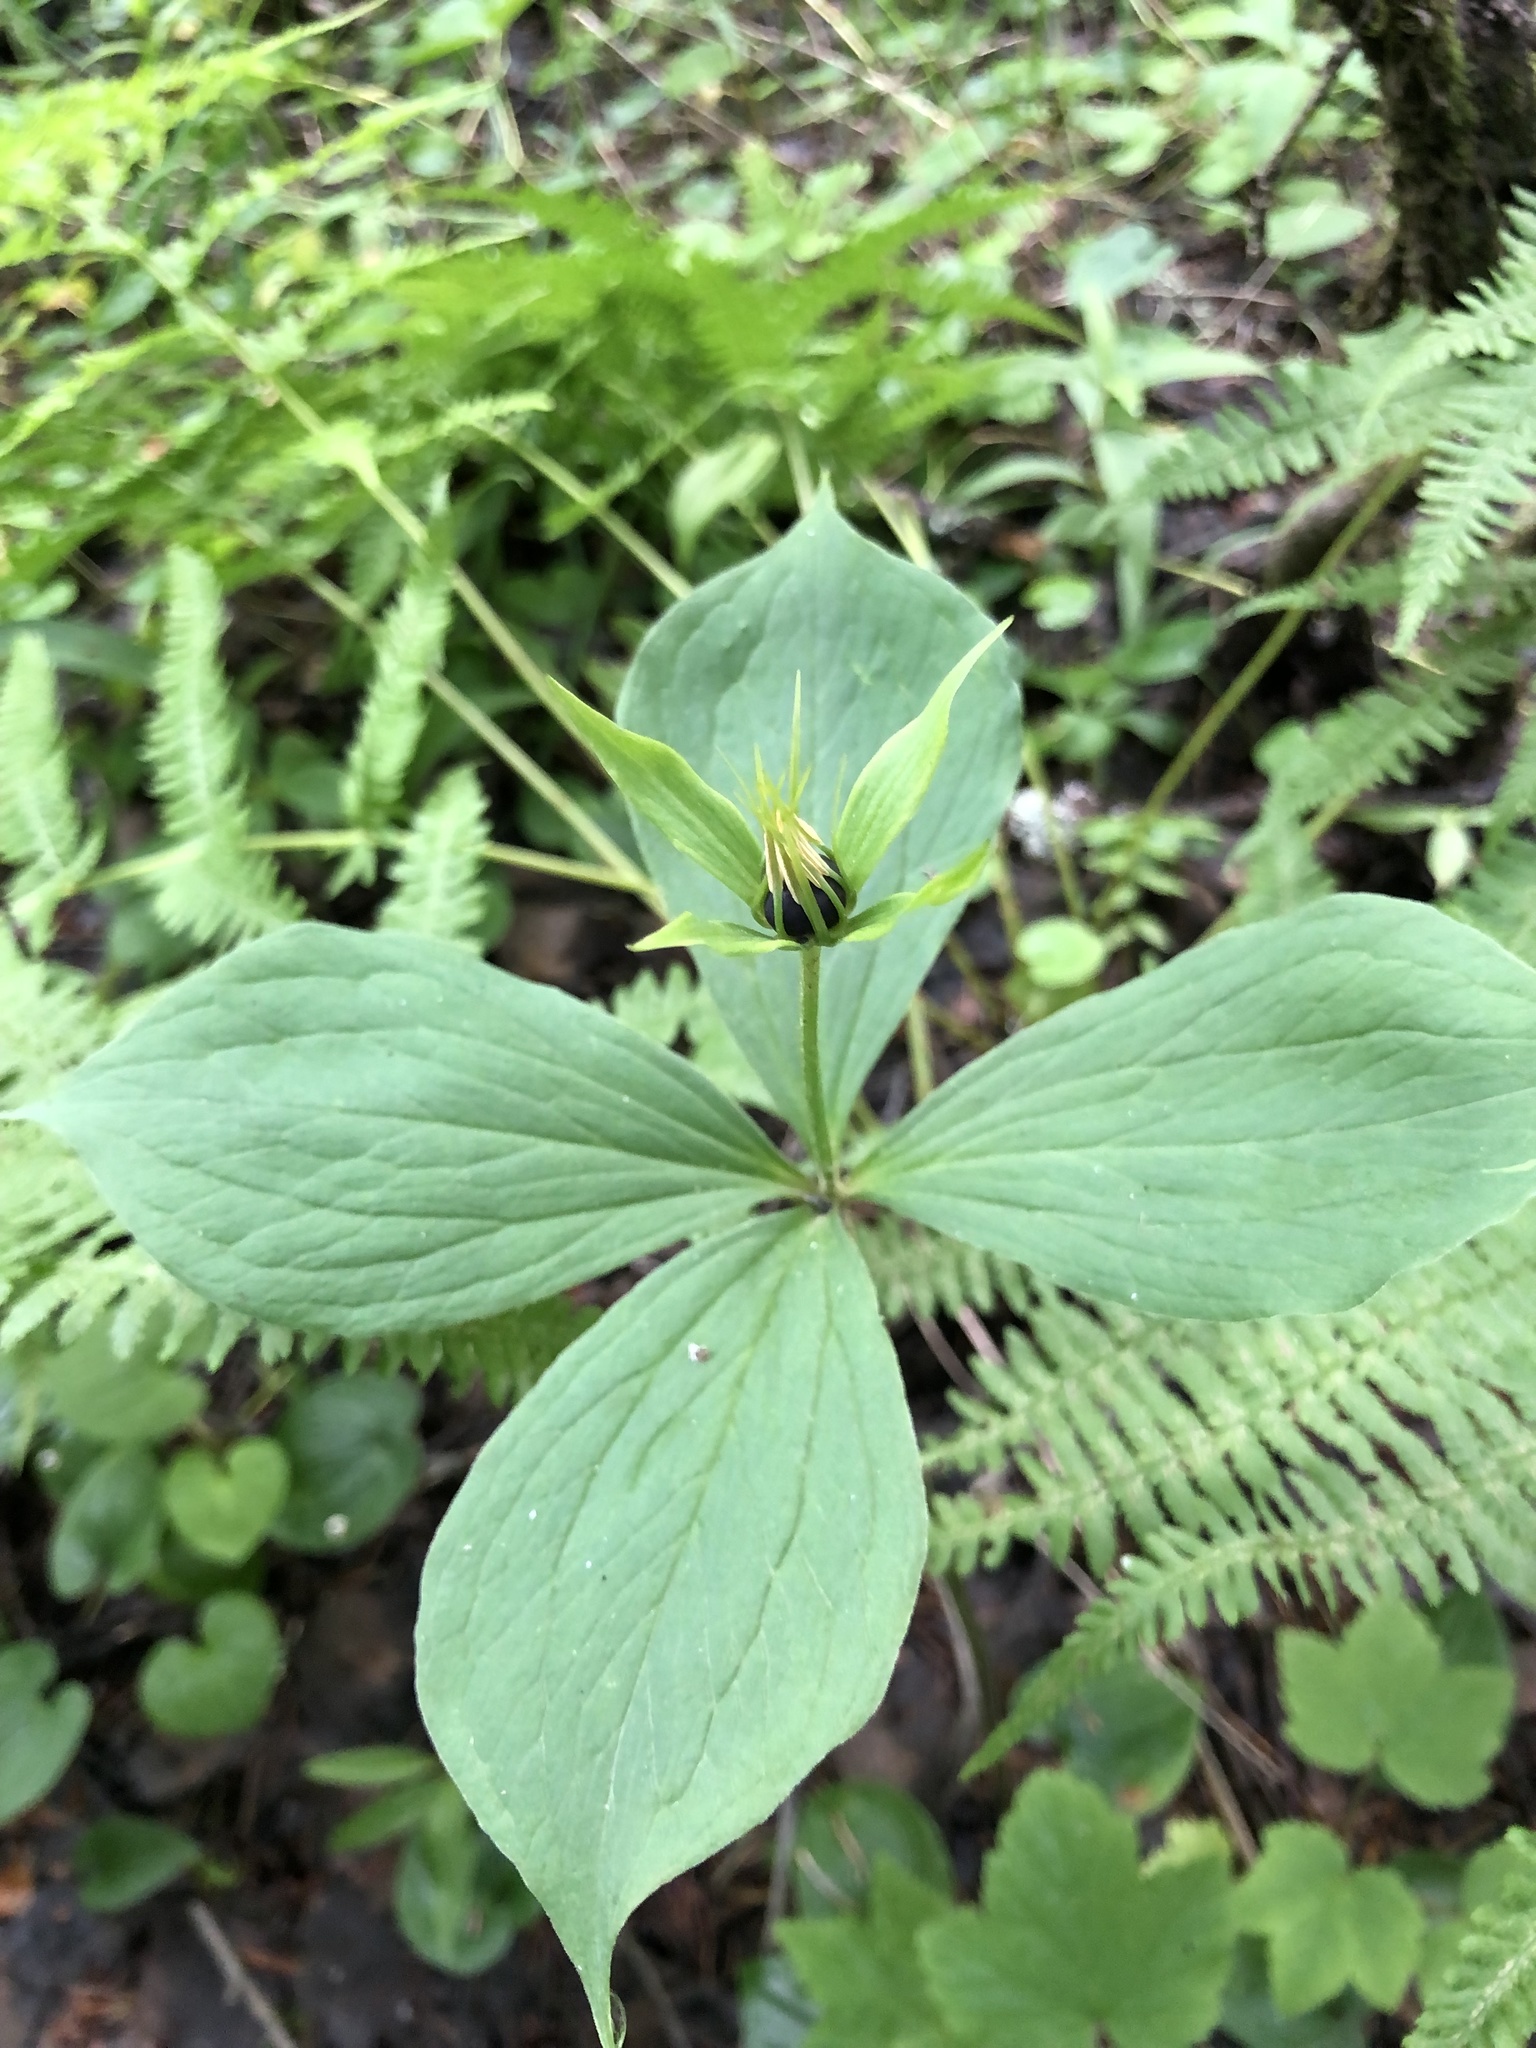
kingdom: Plantae
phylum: Tracheophyta
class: Liliopsida
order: Liliales
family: Melanthiaceae
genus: Paris
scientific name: Paris quadrifolia
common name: Herb-paris
